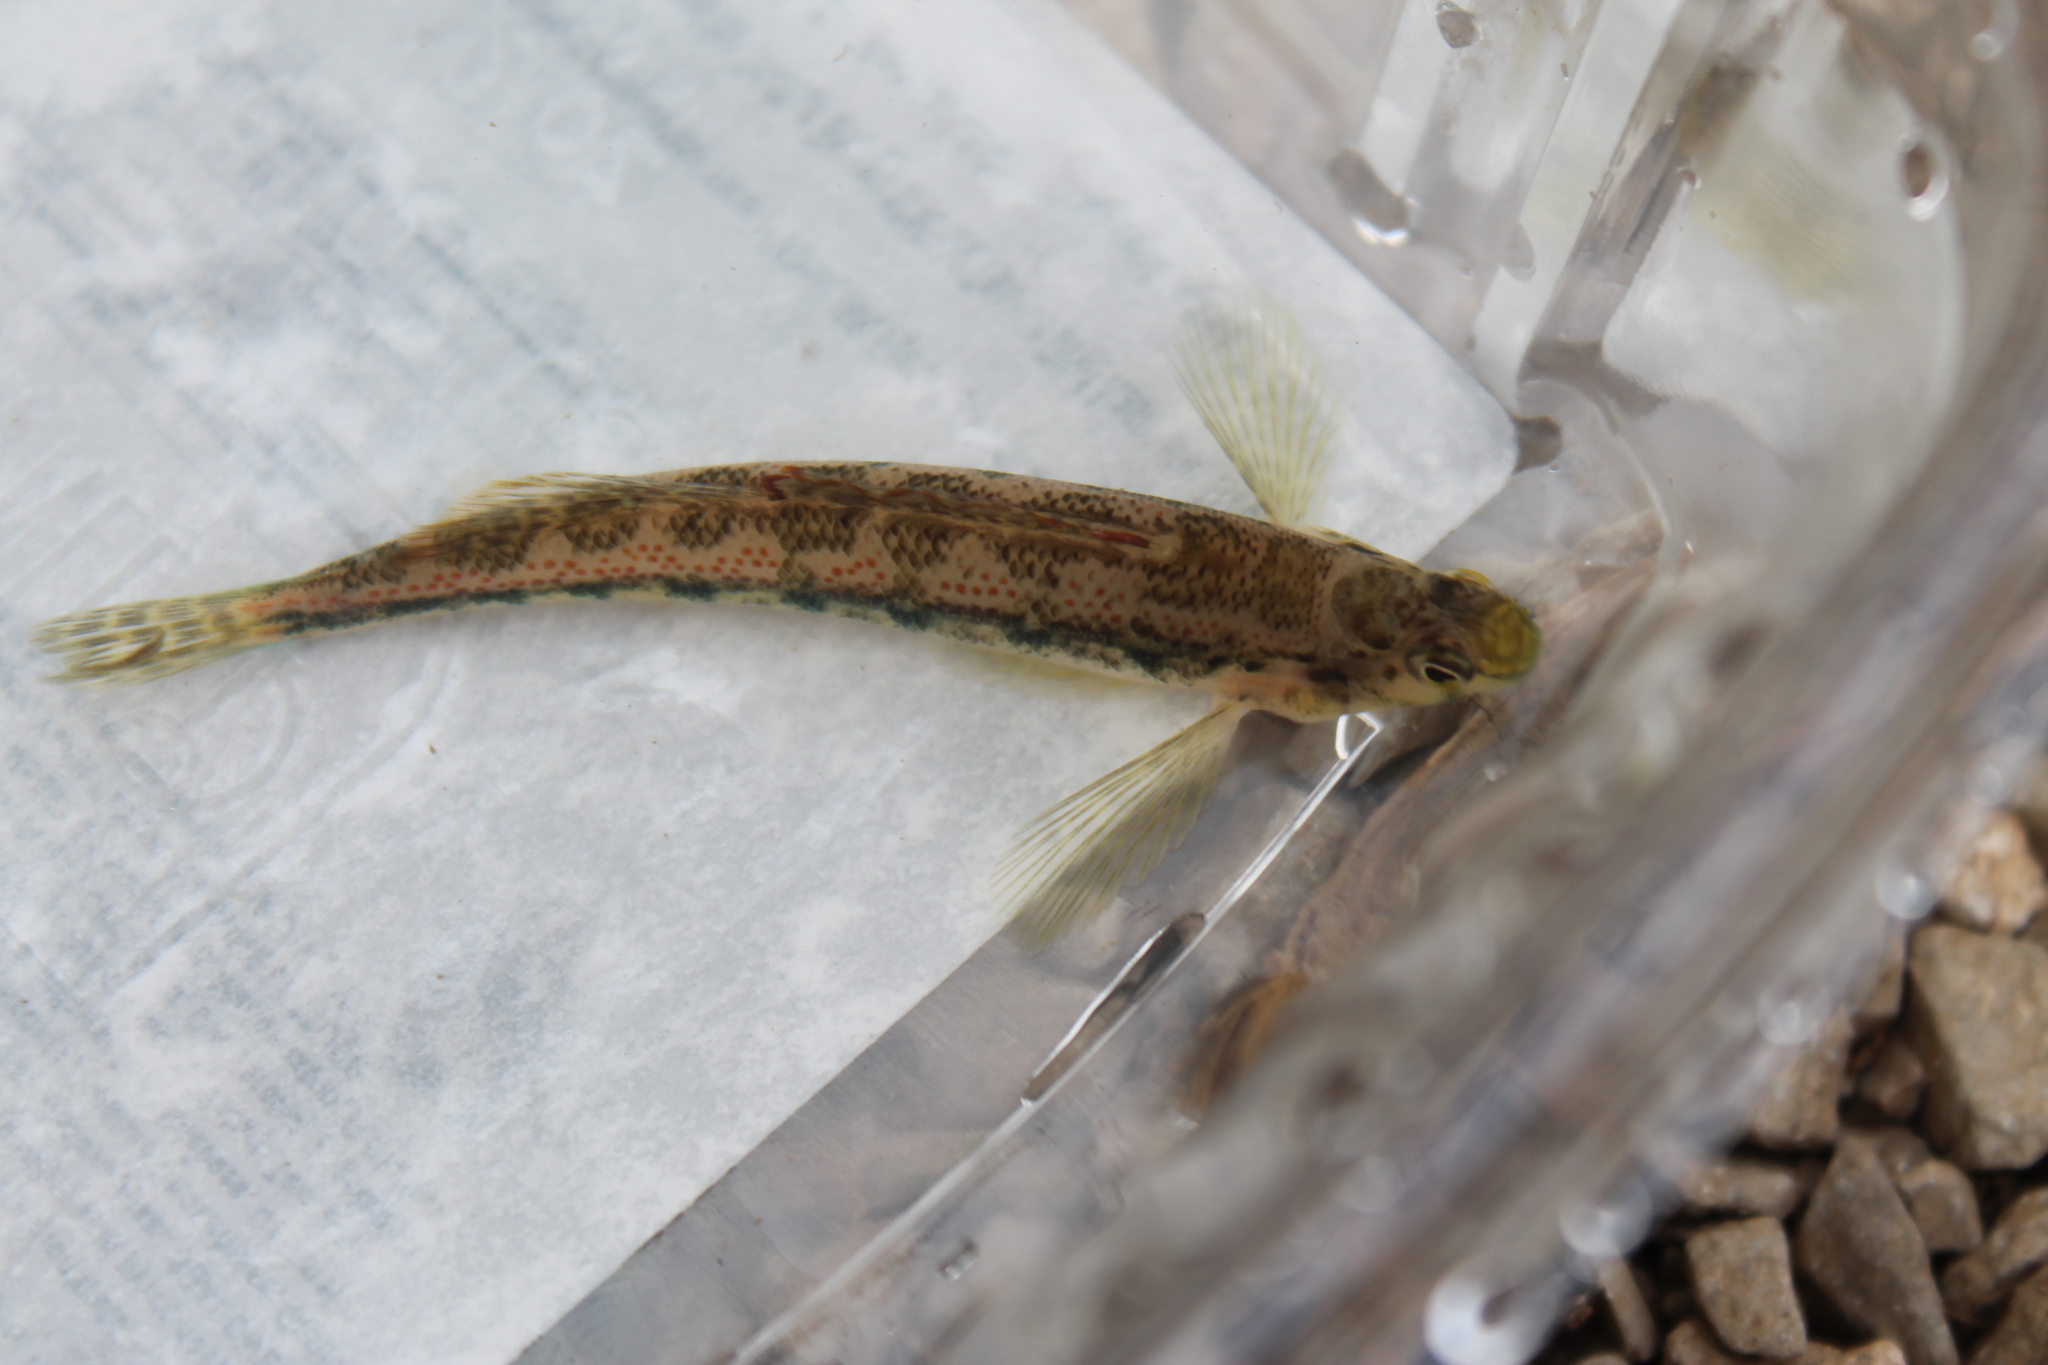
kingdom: Animalia
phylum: Chordata
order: Perciformes
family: Percidae
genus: Etheostoma
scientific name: Etheostoma planasaxatile
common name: Duck darter
